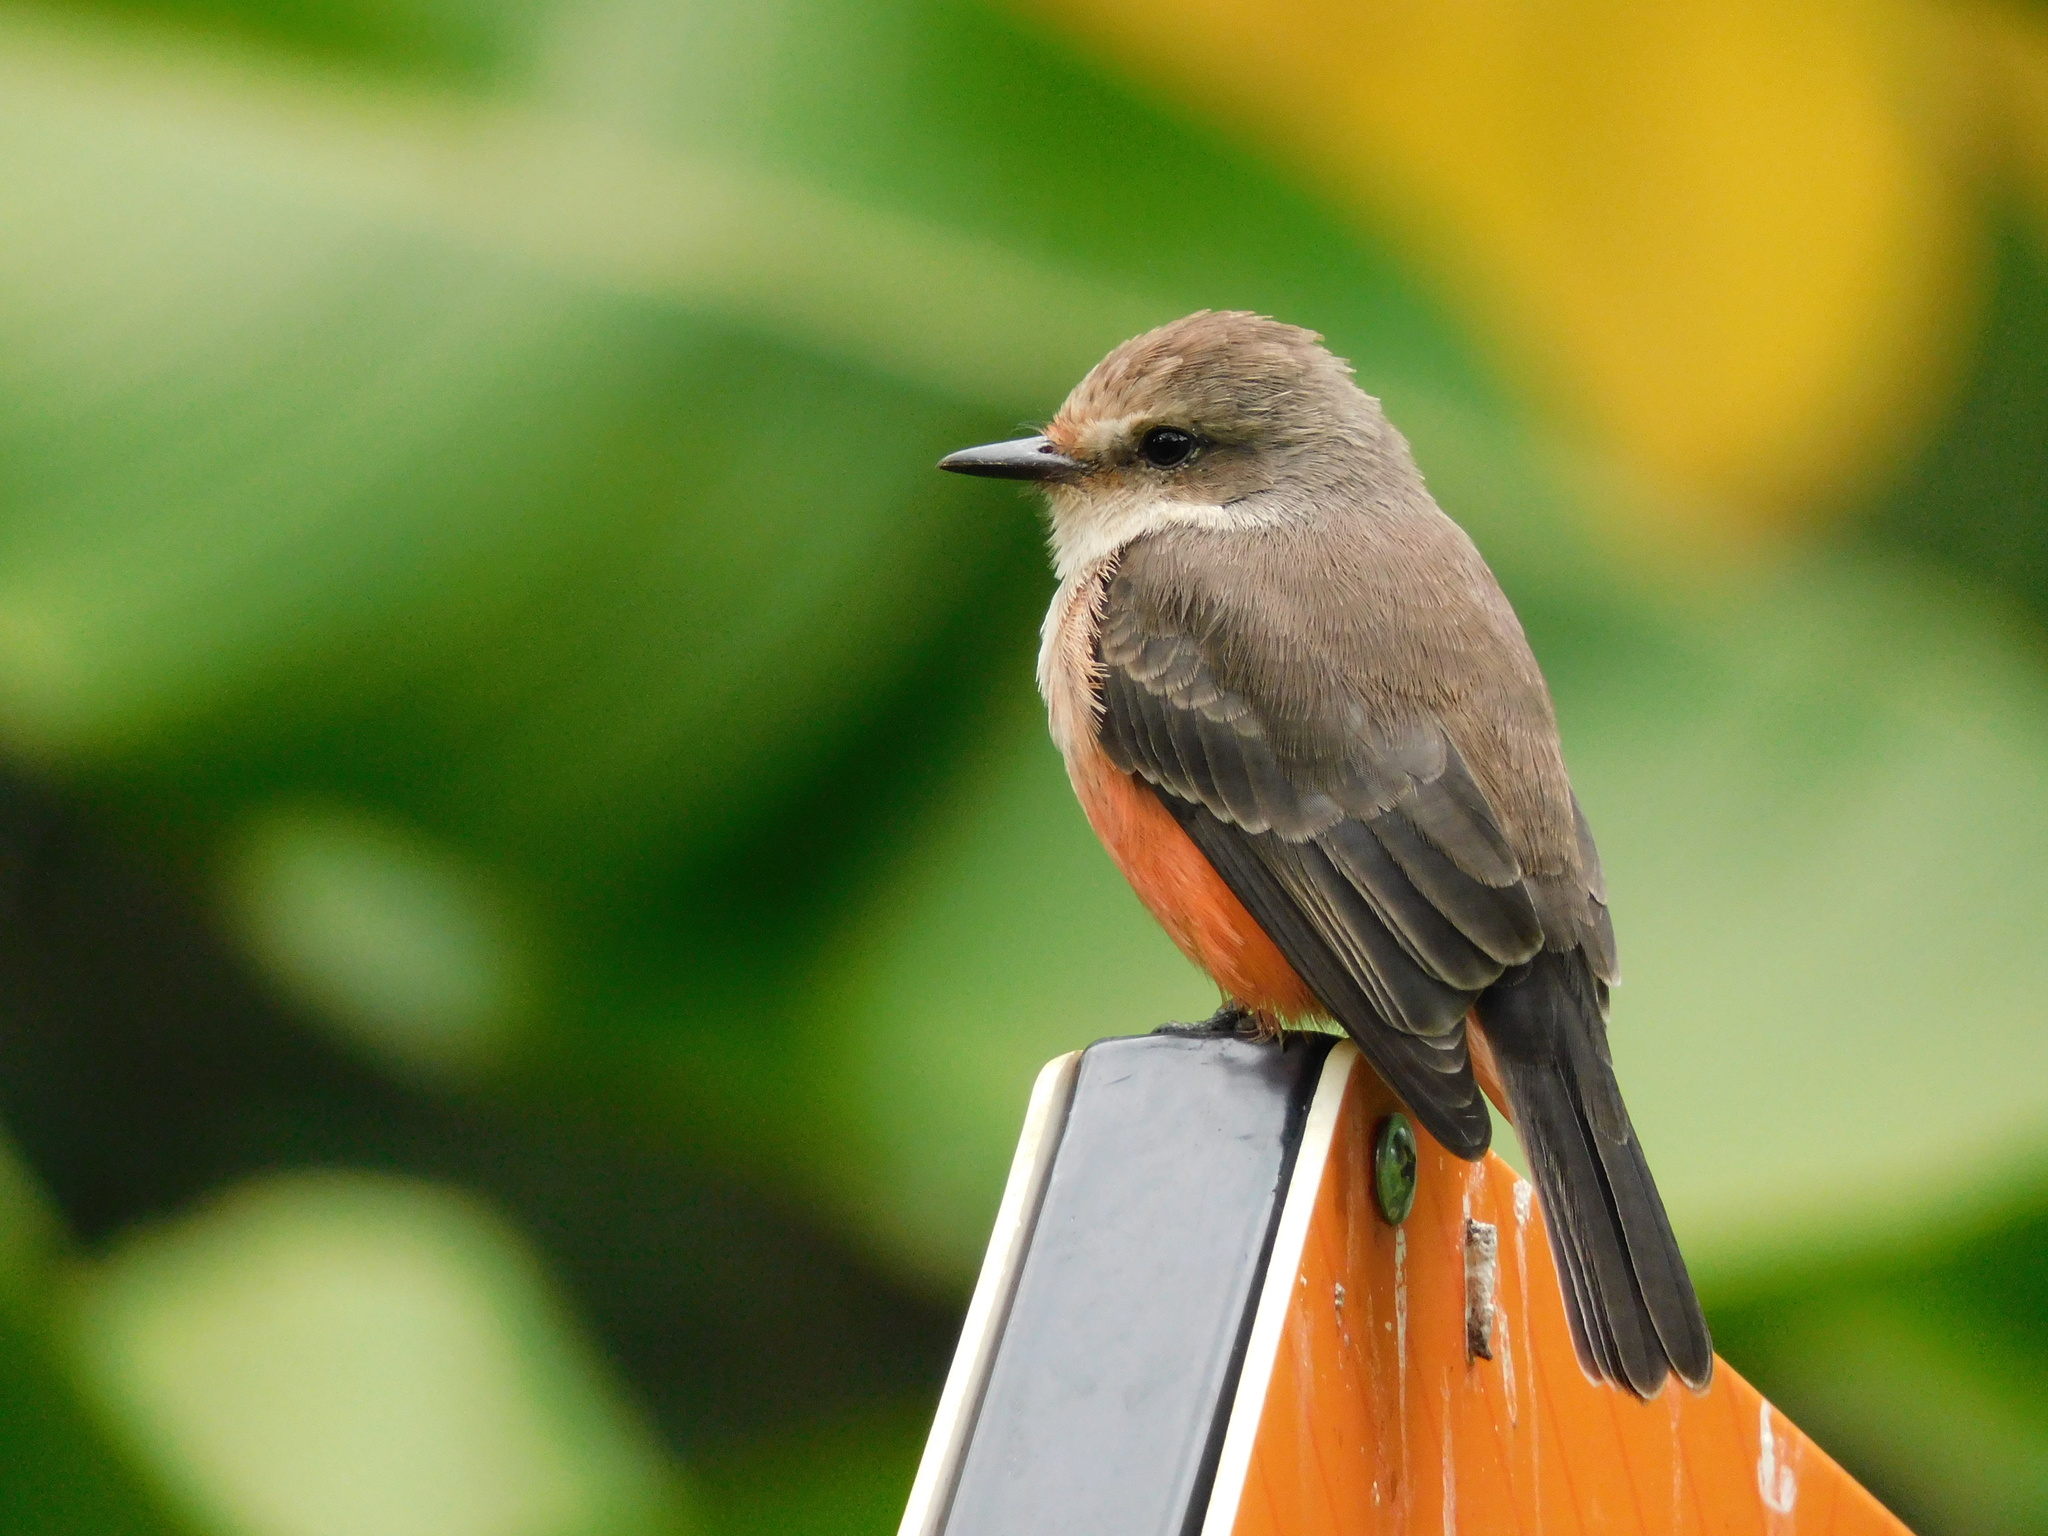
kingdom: Animalia
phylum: Chordata
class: Aves
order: Passeriformes
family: Tyrannidae
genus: Pyrocephalus
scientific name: Pyrocephalus rubinus
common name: Vermilion flycatcher
